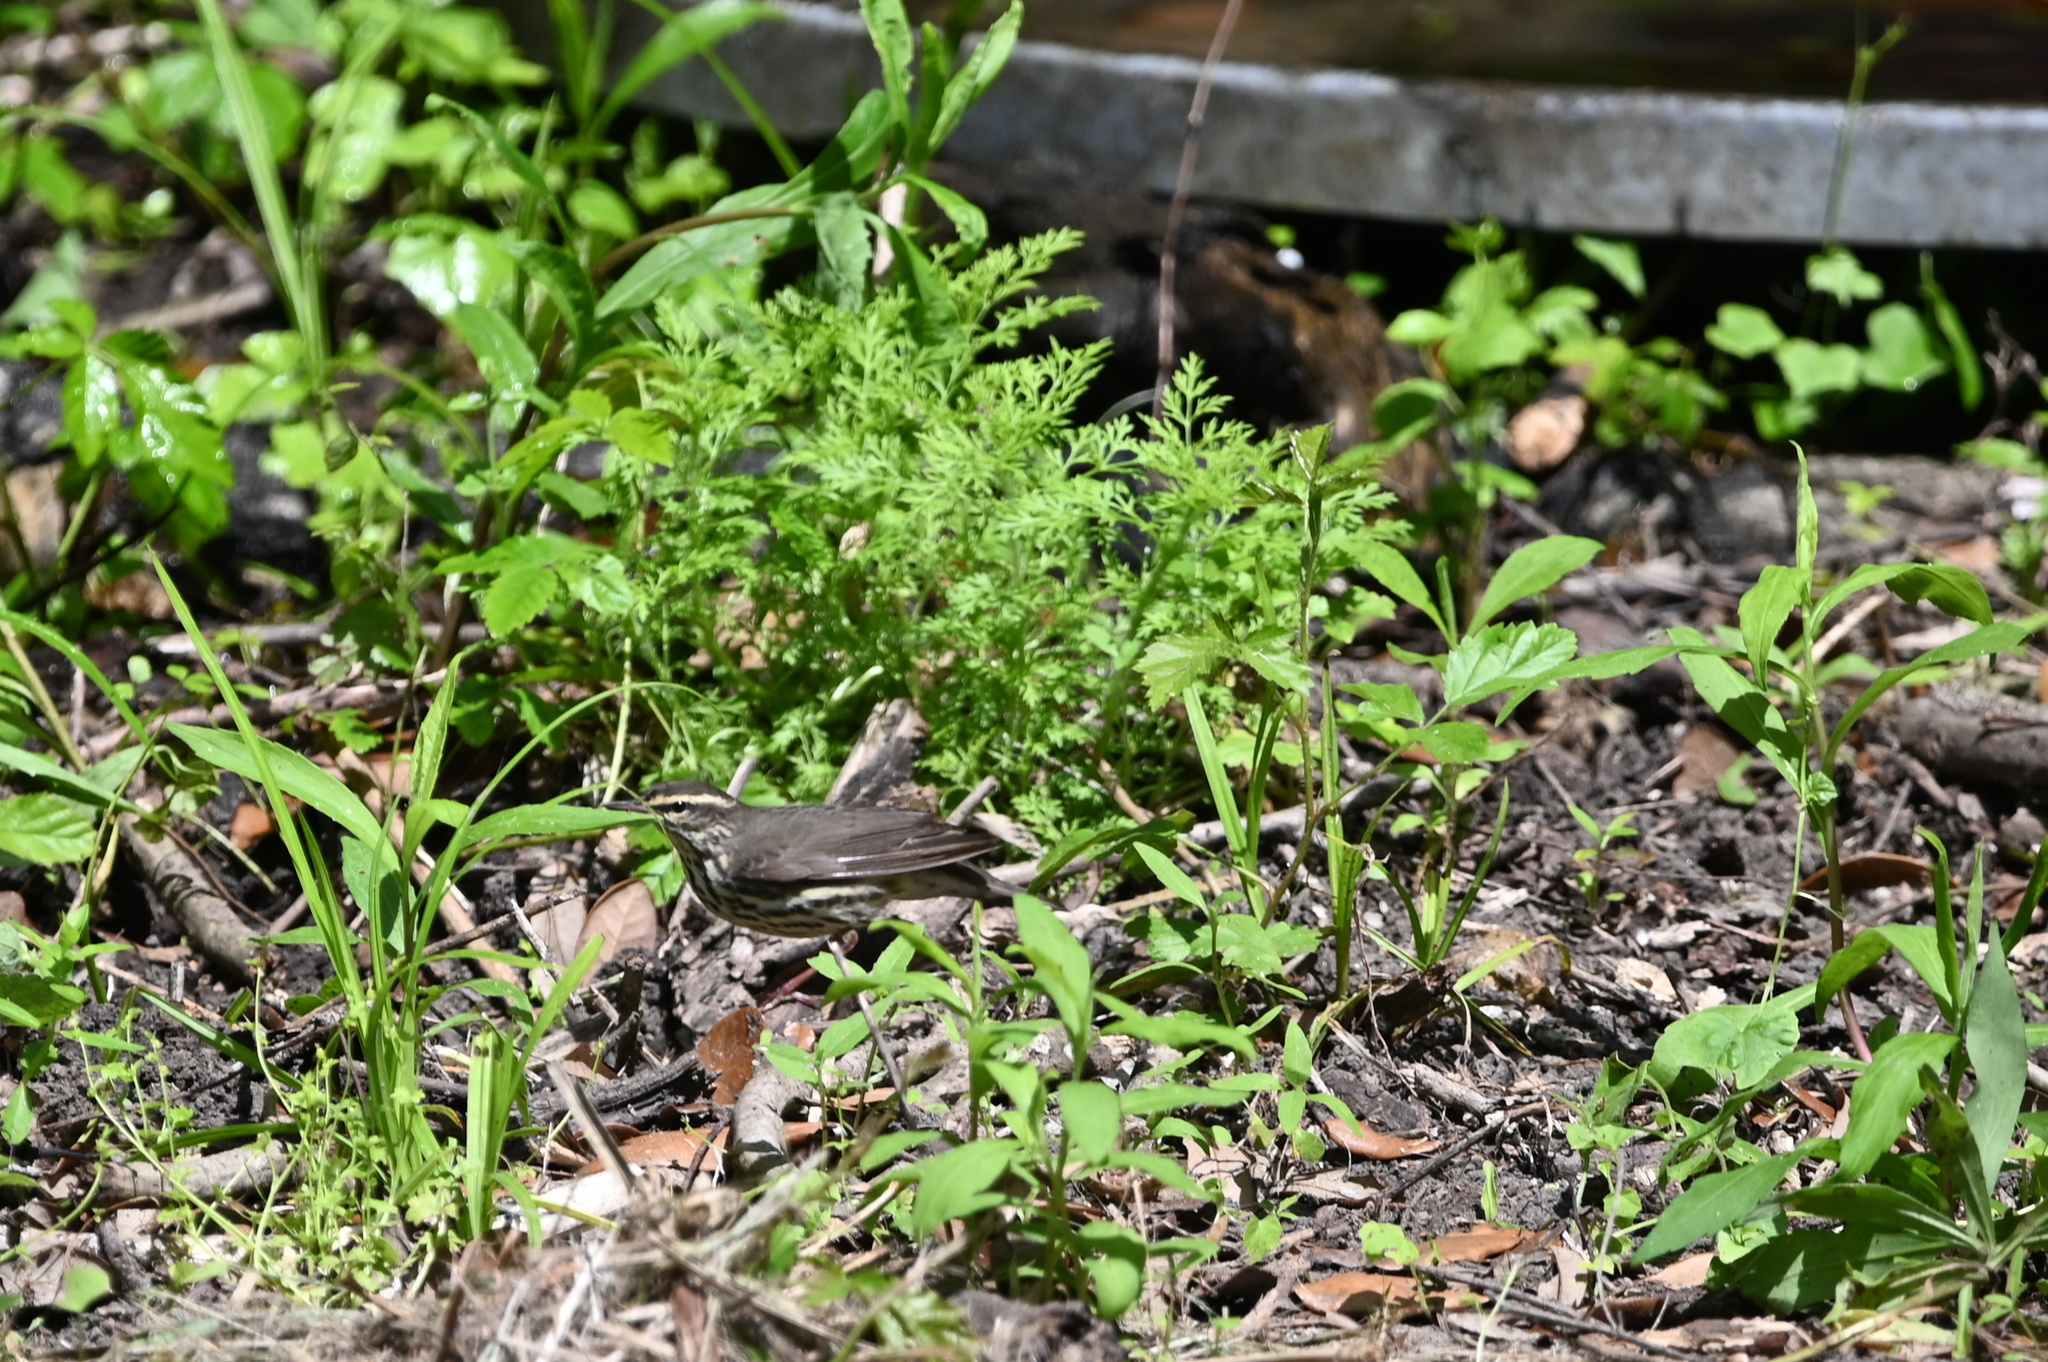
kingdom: Animalia
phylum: Chordata
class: Aves
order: Passeriformes
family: Parulidae
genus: Parkesia
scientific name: Parkesia noveboracensis
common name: Northern waterthrush
